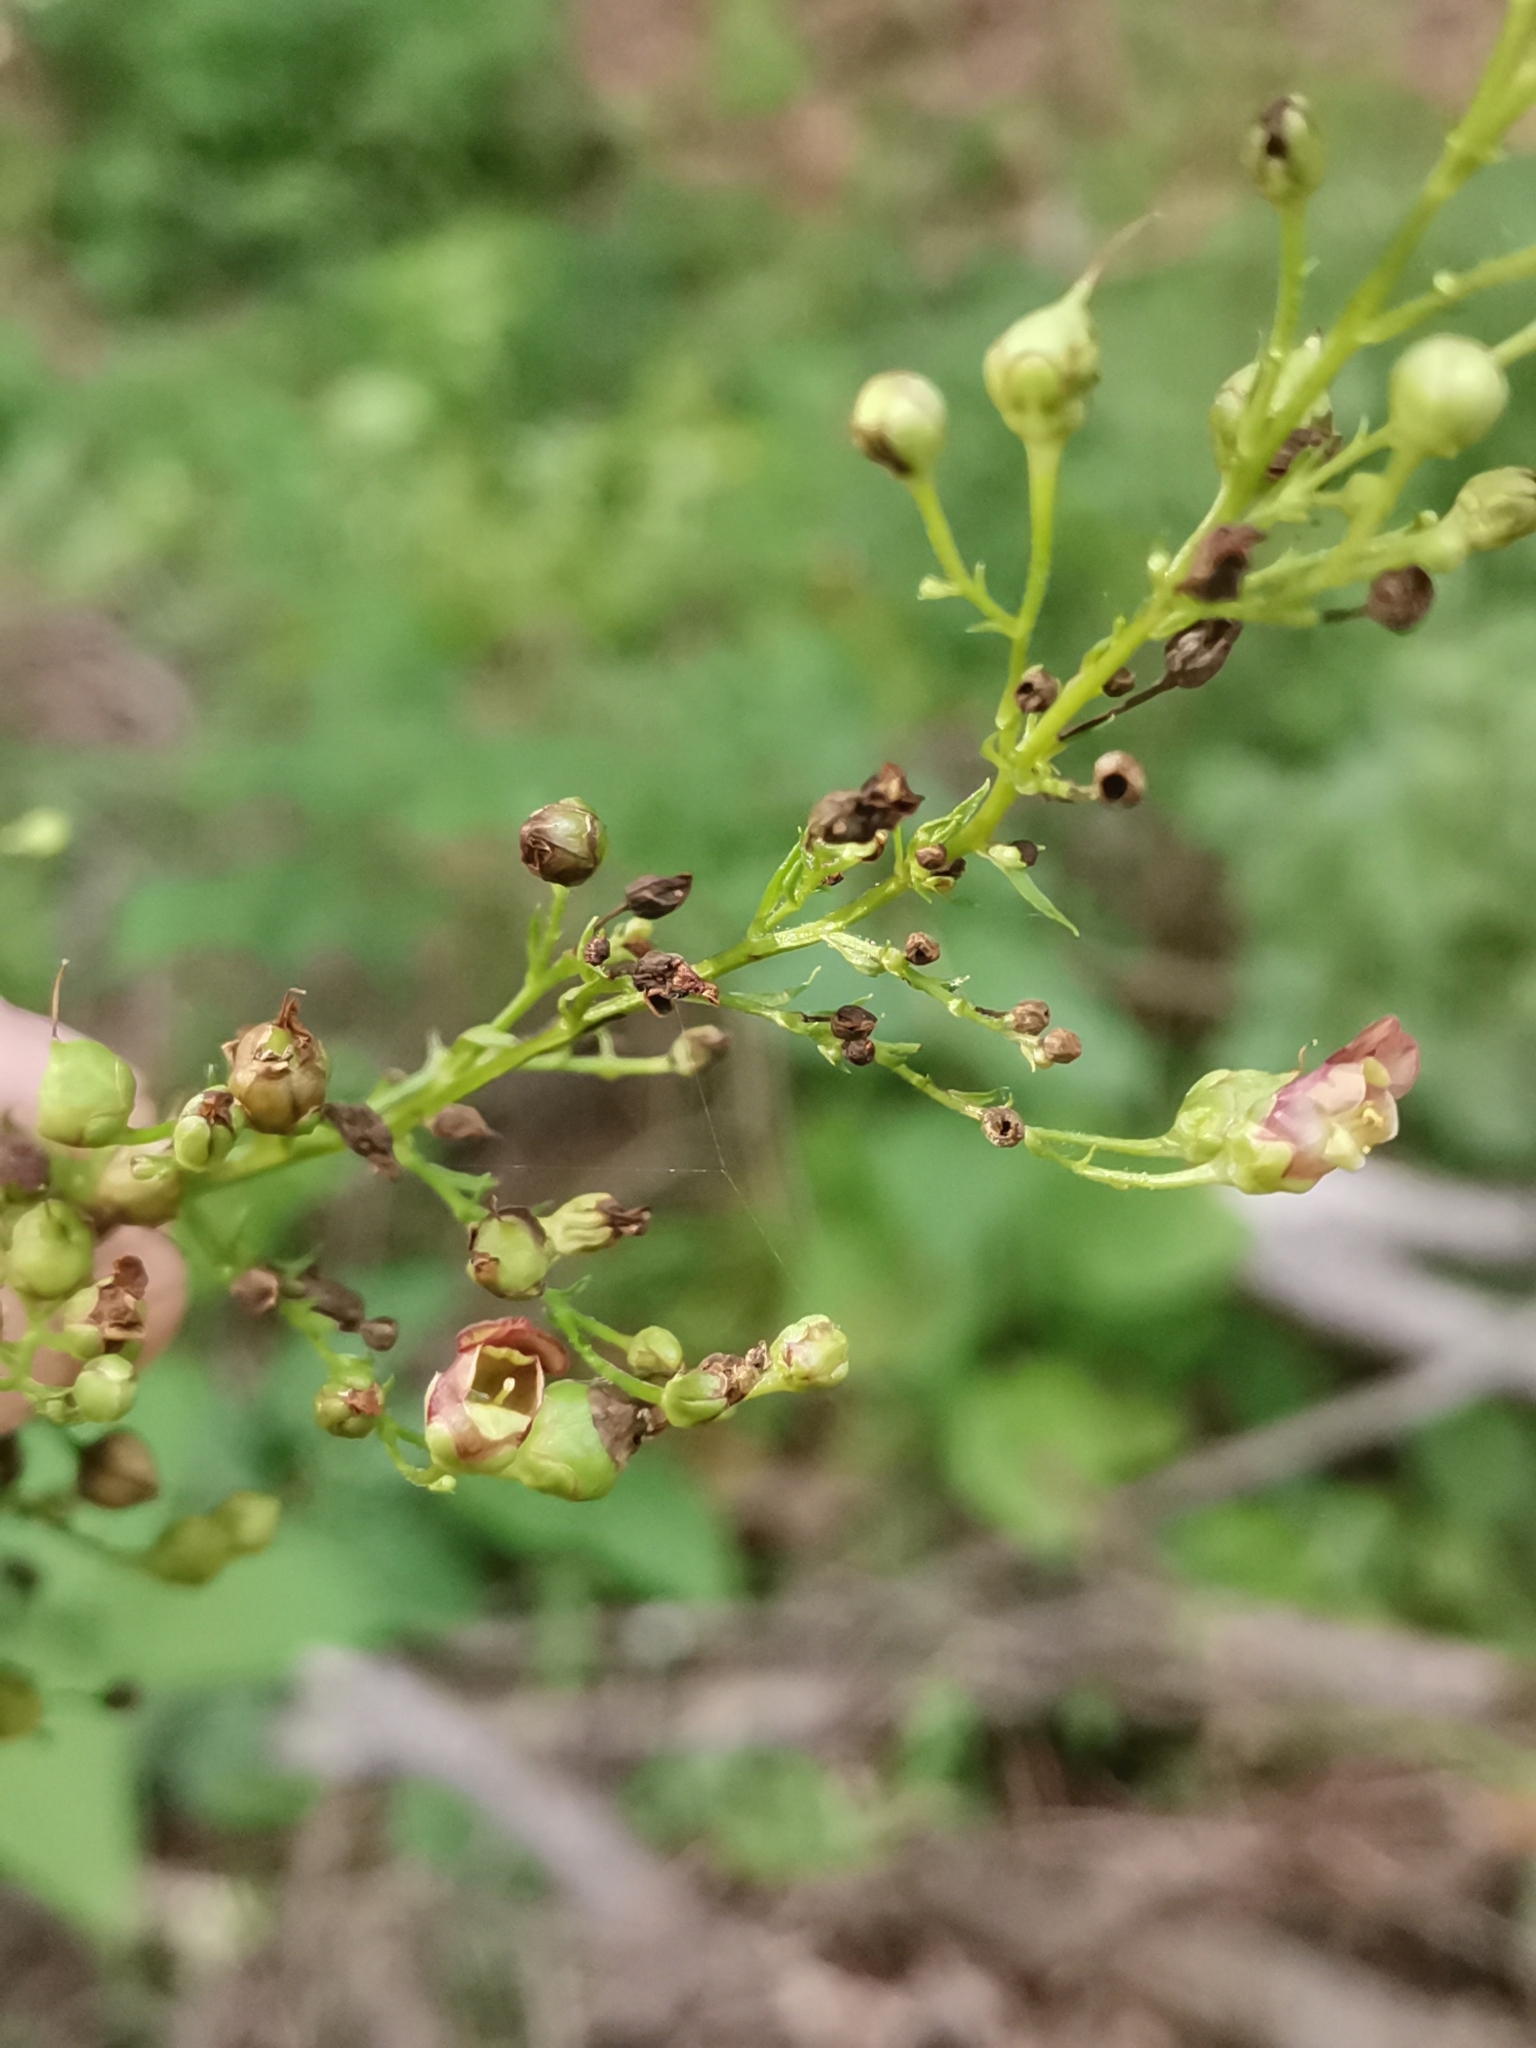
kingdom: Plantae
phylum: Tracheophyta
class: Magnoliopsida
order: Lamiales
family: Scrophulariaceae
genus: Scrophularia
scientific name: Scrophularia umbrosa
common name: Green figwort
